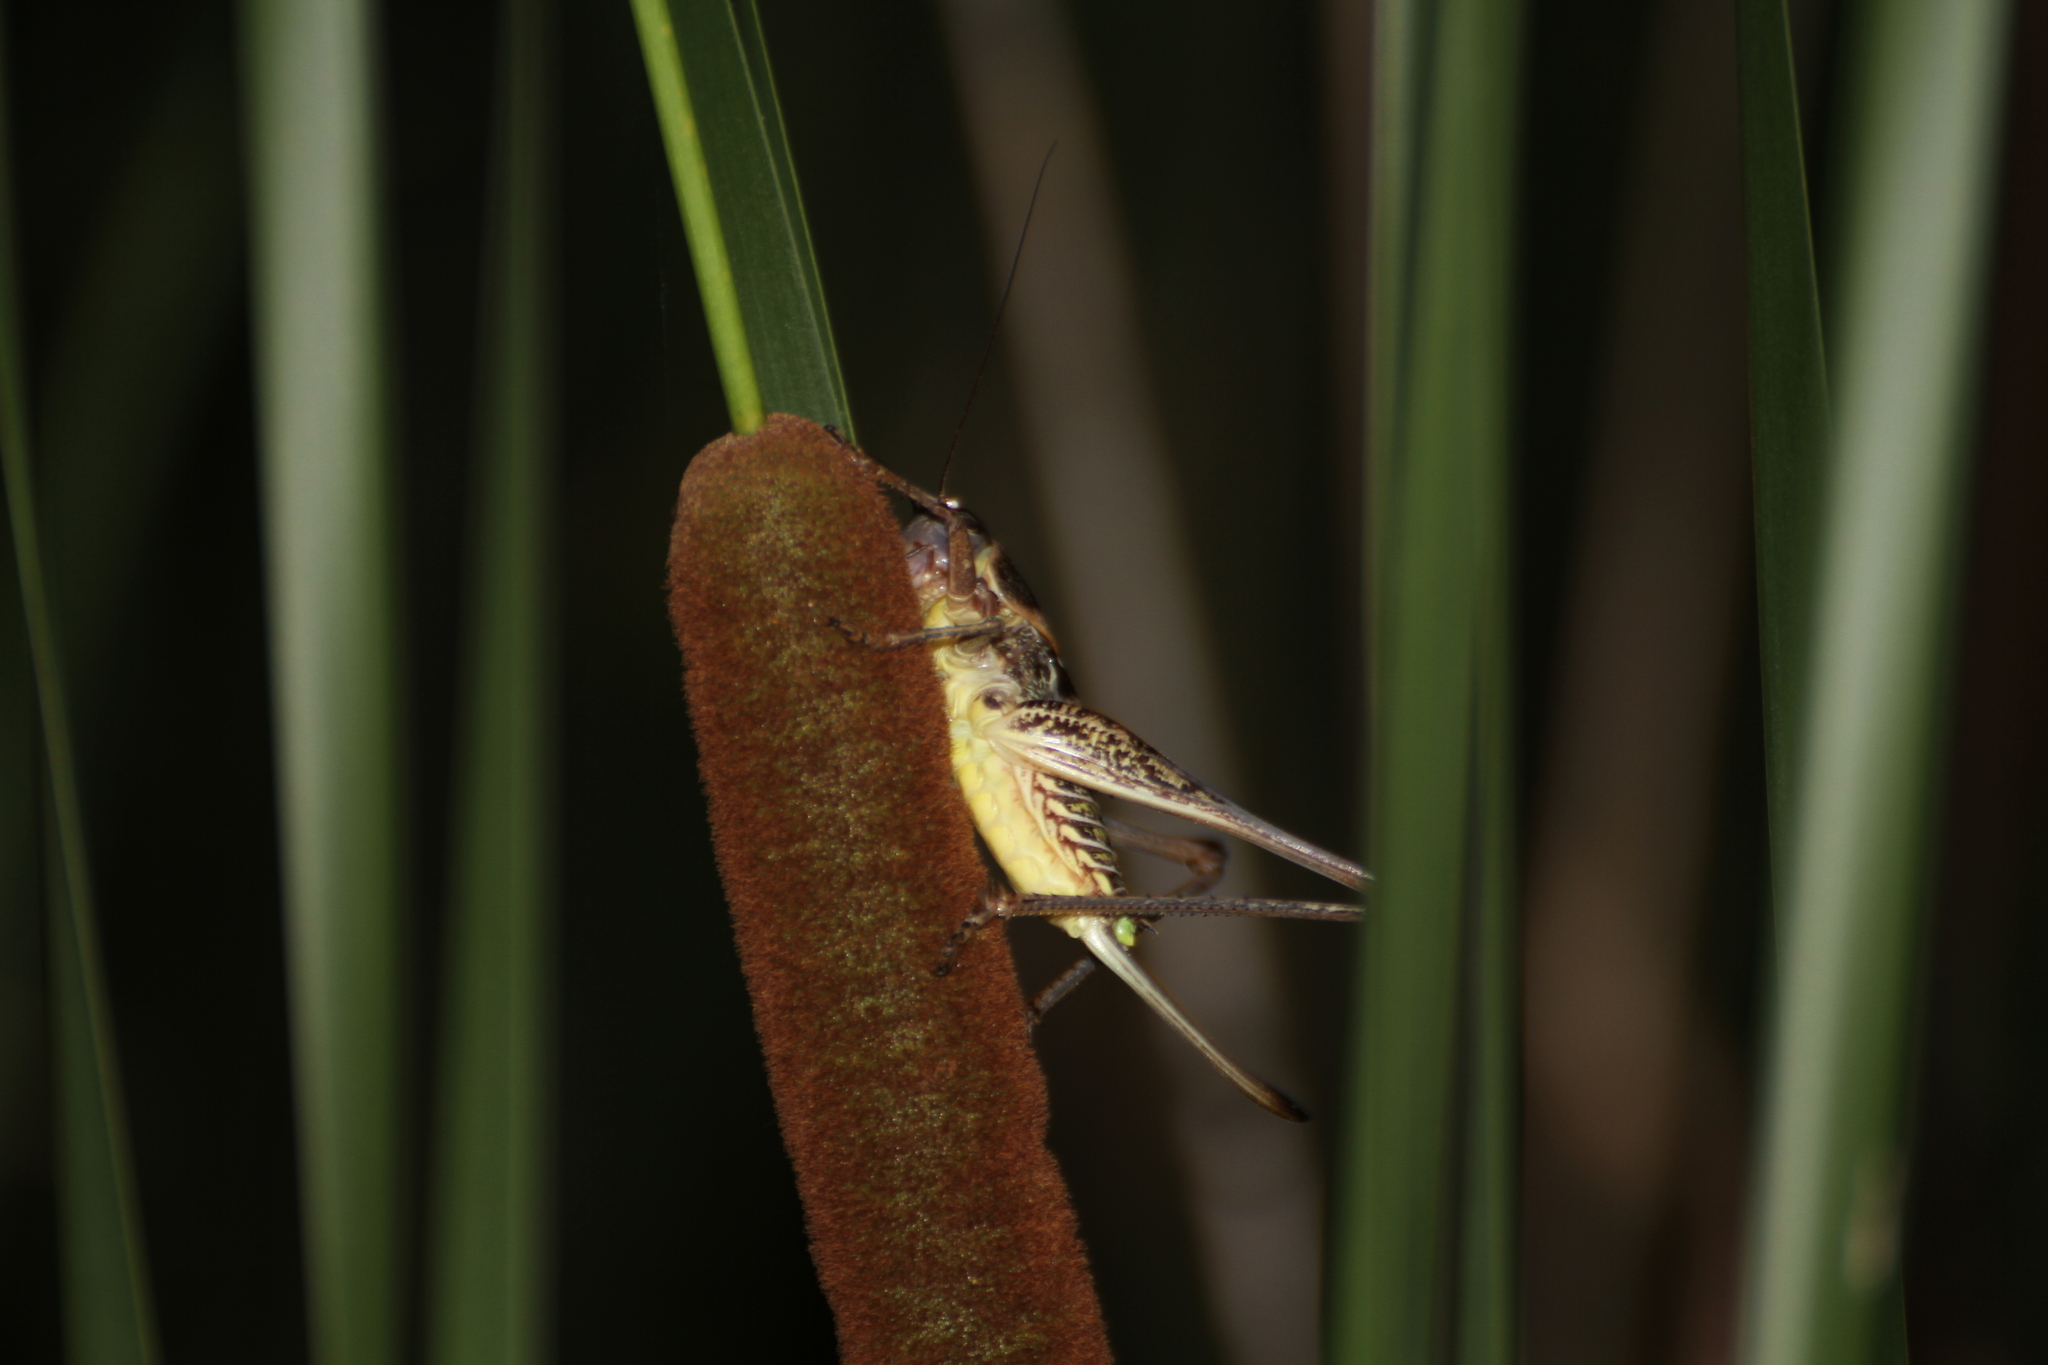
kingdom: Animalia
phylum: Arthropoda
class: Insecta
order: Orthoptera
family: Tettigoniidae
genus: Decticus
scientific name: Decticus albifrons
